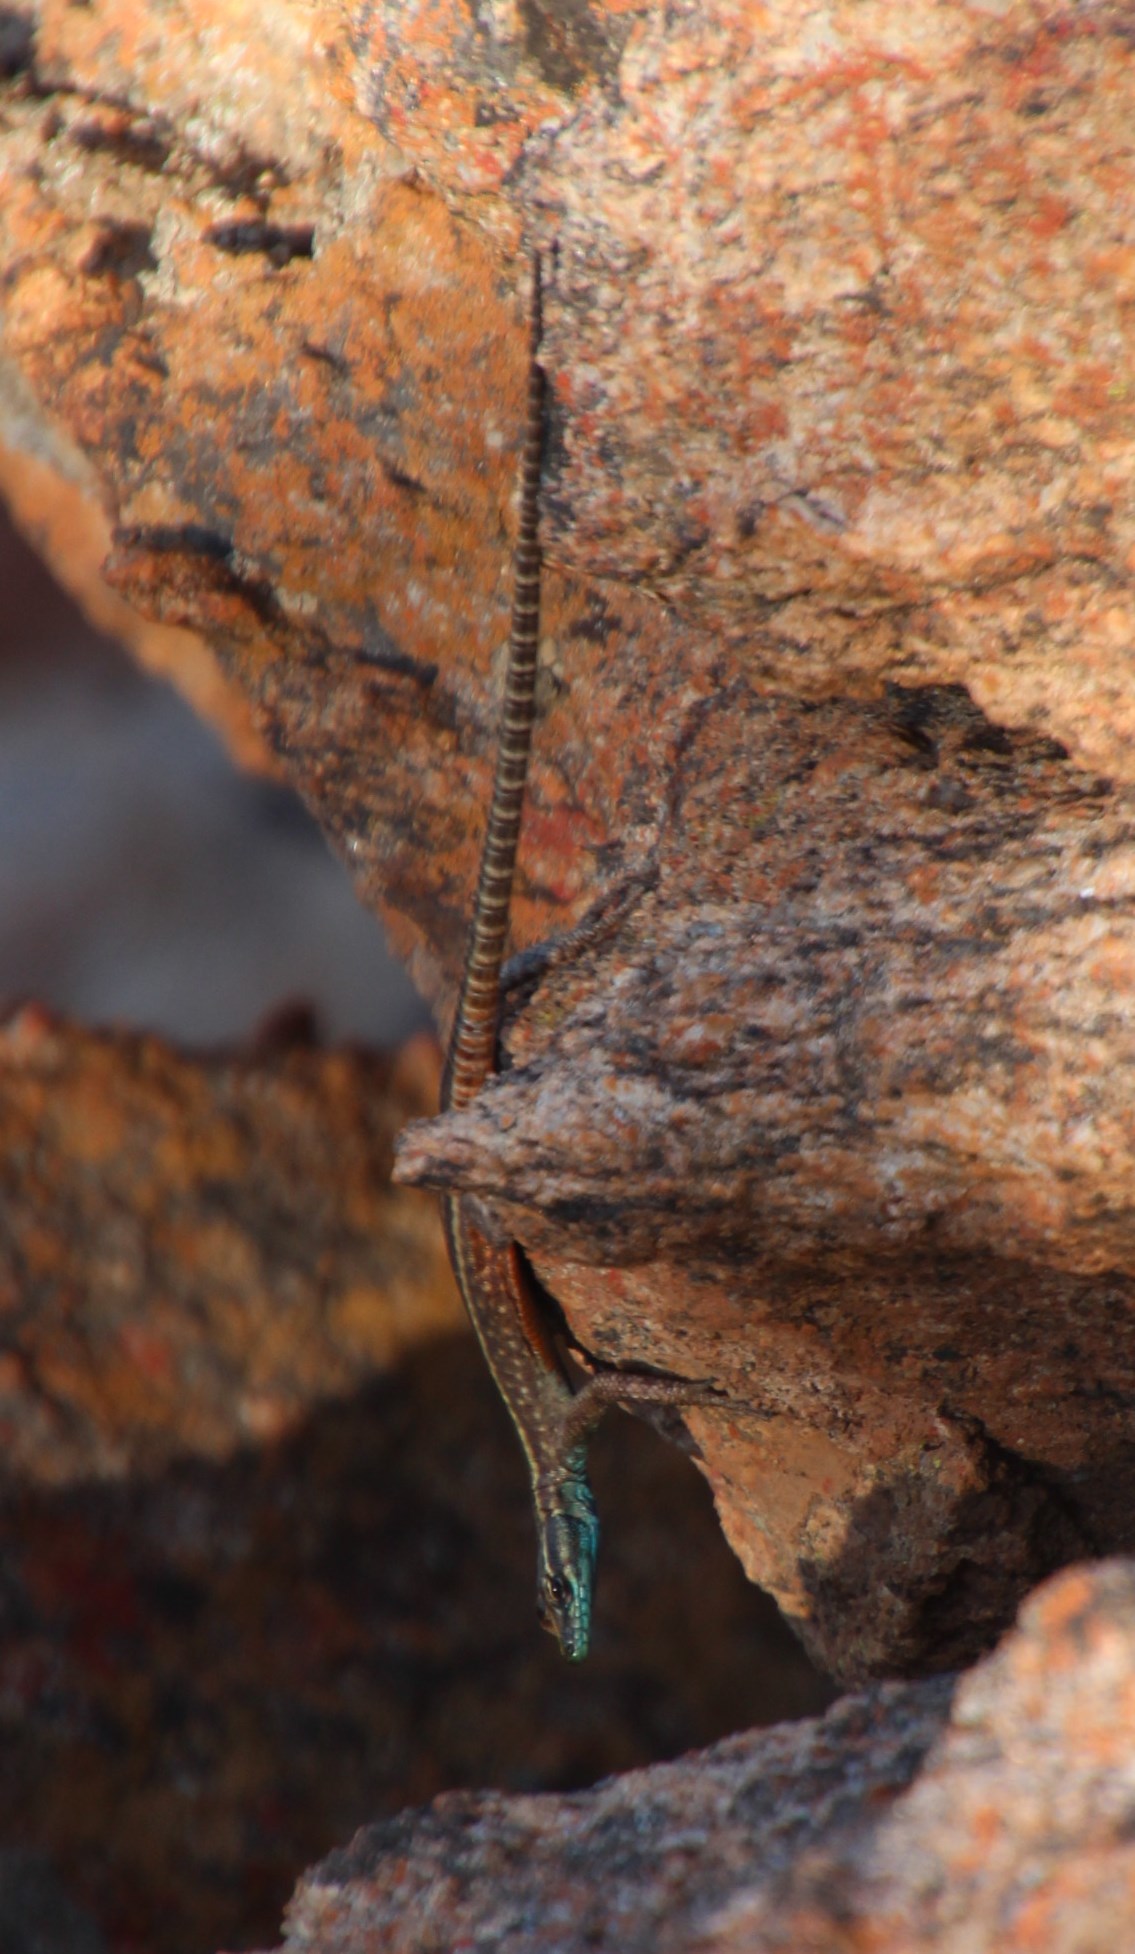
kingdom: Animalia
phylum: Chordata
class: Squamata
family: Cordylidae
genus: Platysaurus
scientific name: Platysaurus capensis
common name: Namaqua flat lizard
